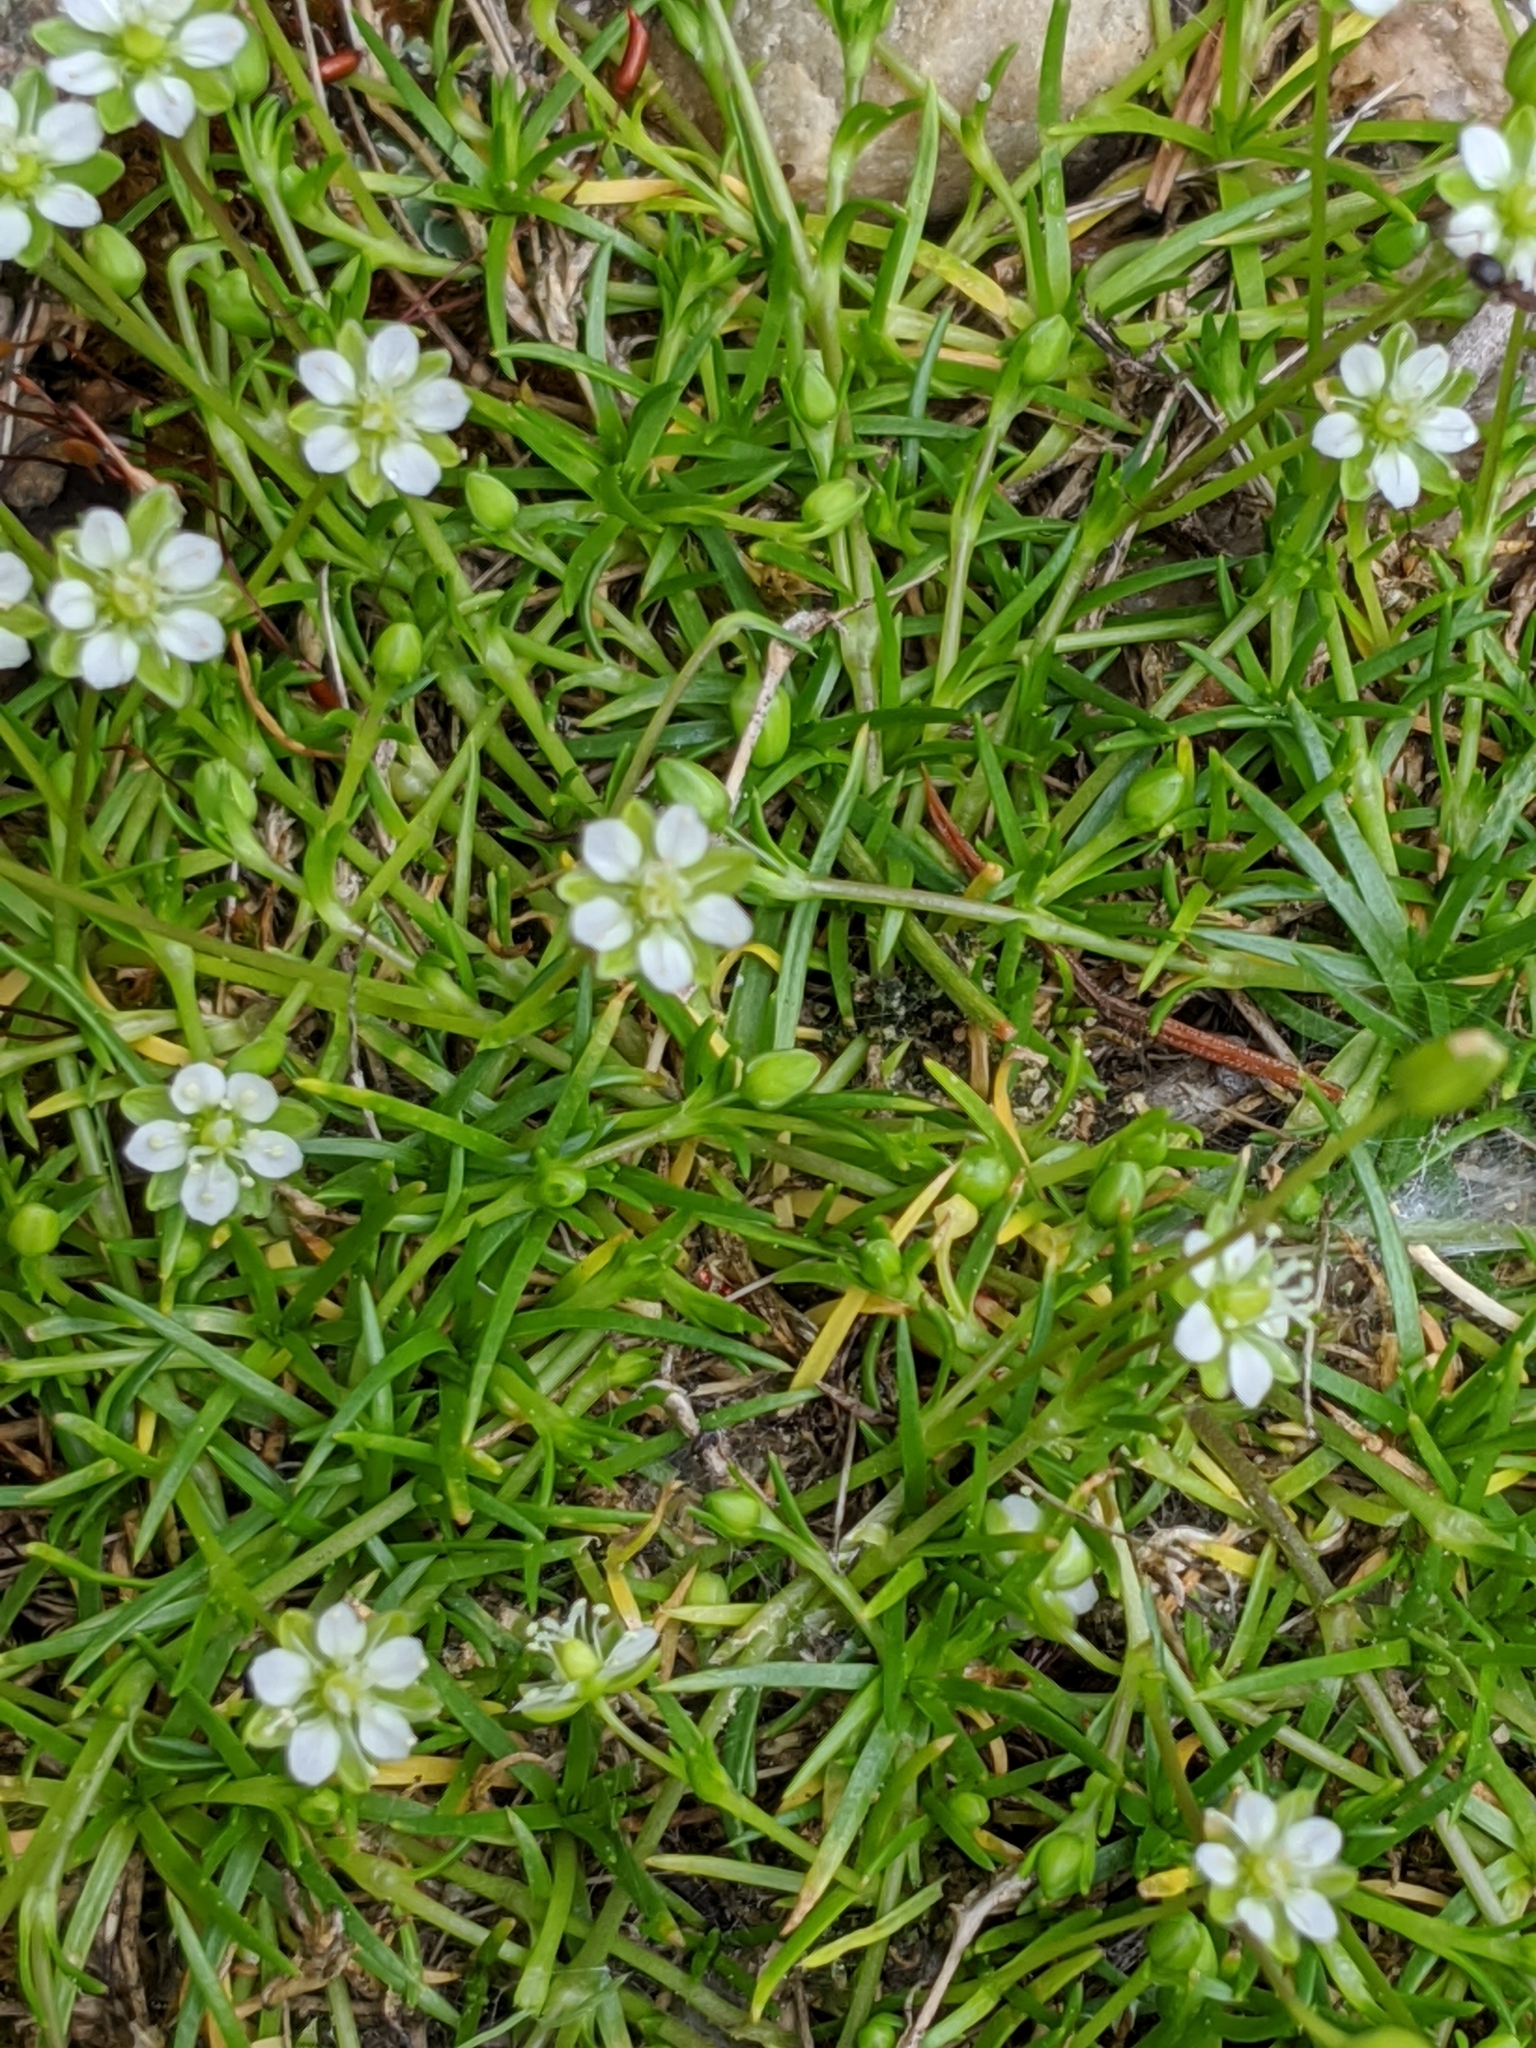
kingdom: Plantae
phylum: Tracheophyta
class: Magnoliopsida
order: Caryophyllales
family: Caryophyllaceae
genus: Sagina
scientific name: Sagina saginoides
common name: Alpine pearlwort
